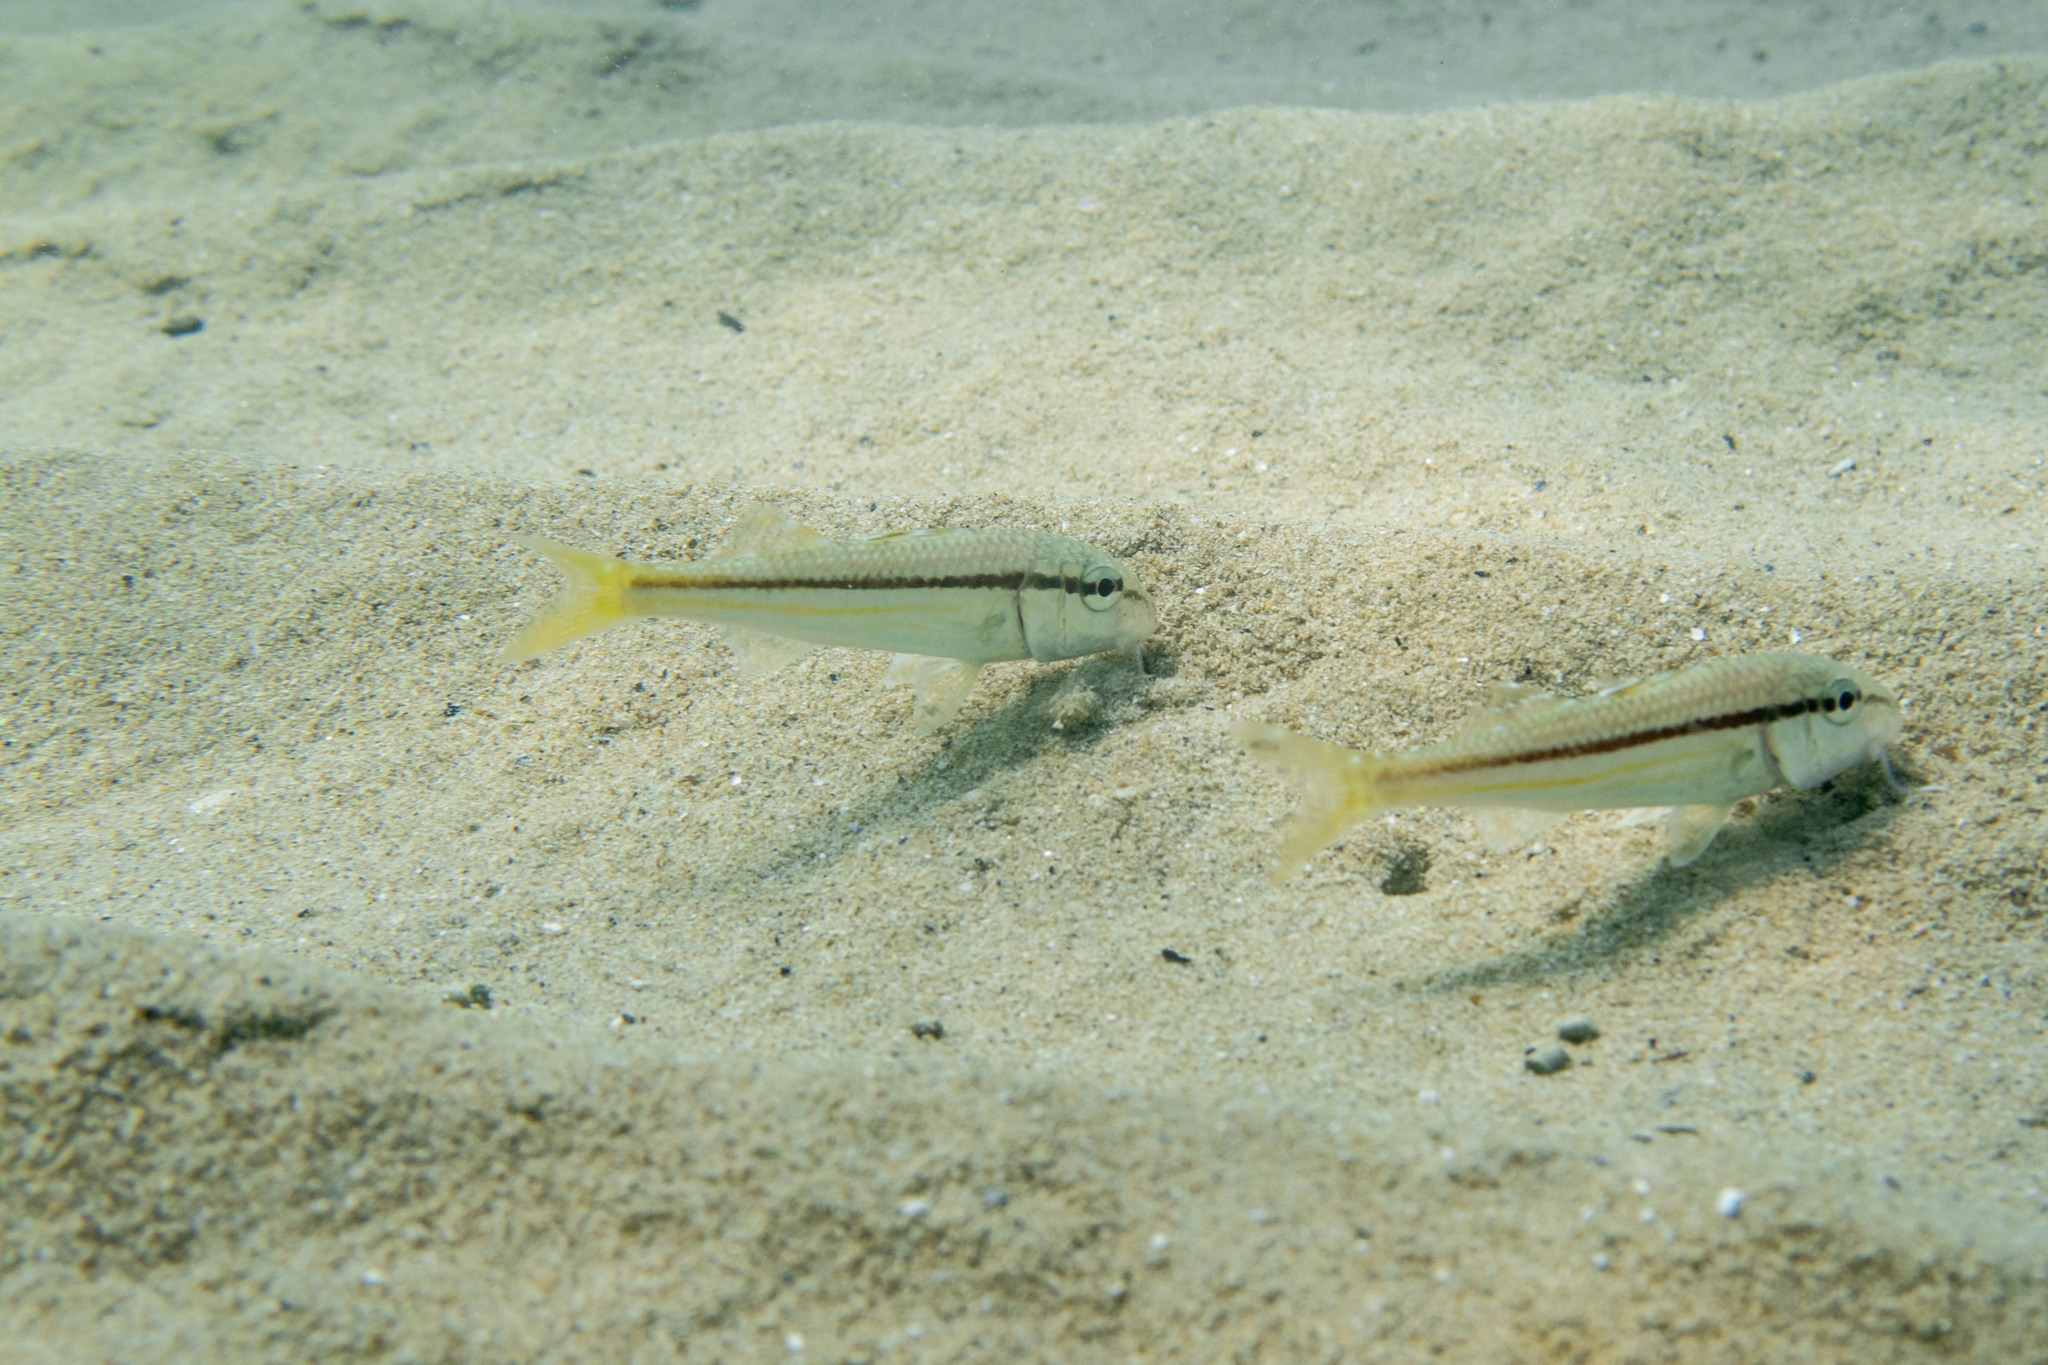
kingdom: Animalia
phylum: Chordata
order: Perciformes
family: Mullidae
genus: Mullus
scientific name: Mullus surmuletus
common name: Red mullet
